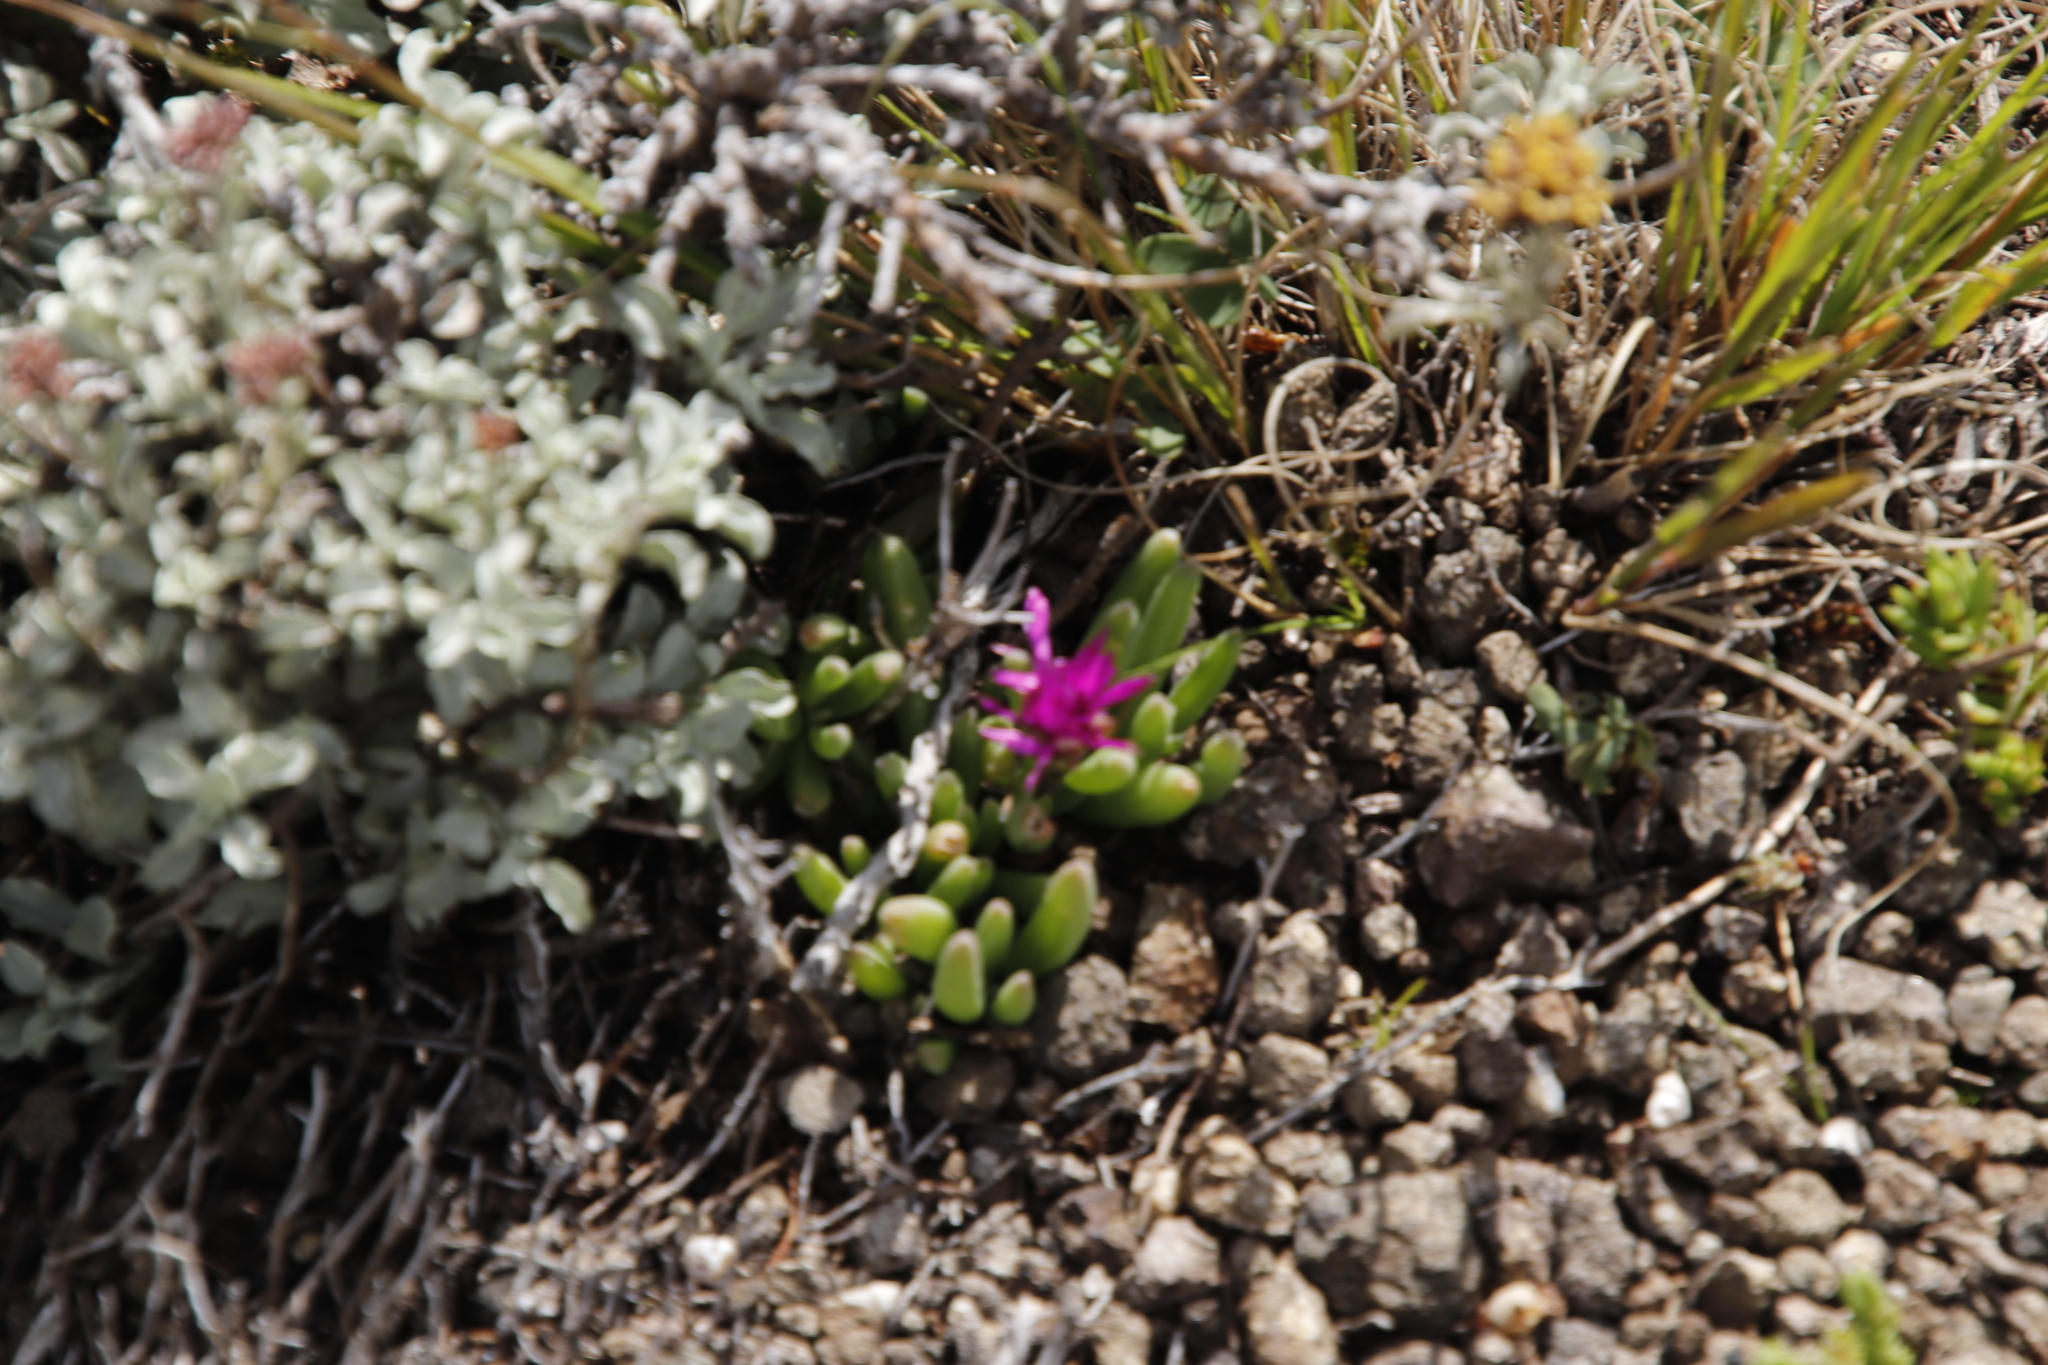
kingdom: Plantae
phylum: Tracheophyta
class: Magnoliopsida
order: Caryophyllales
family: Aizoaceae
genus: Delosperma
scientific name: Delosperma basuticum
